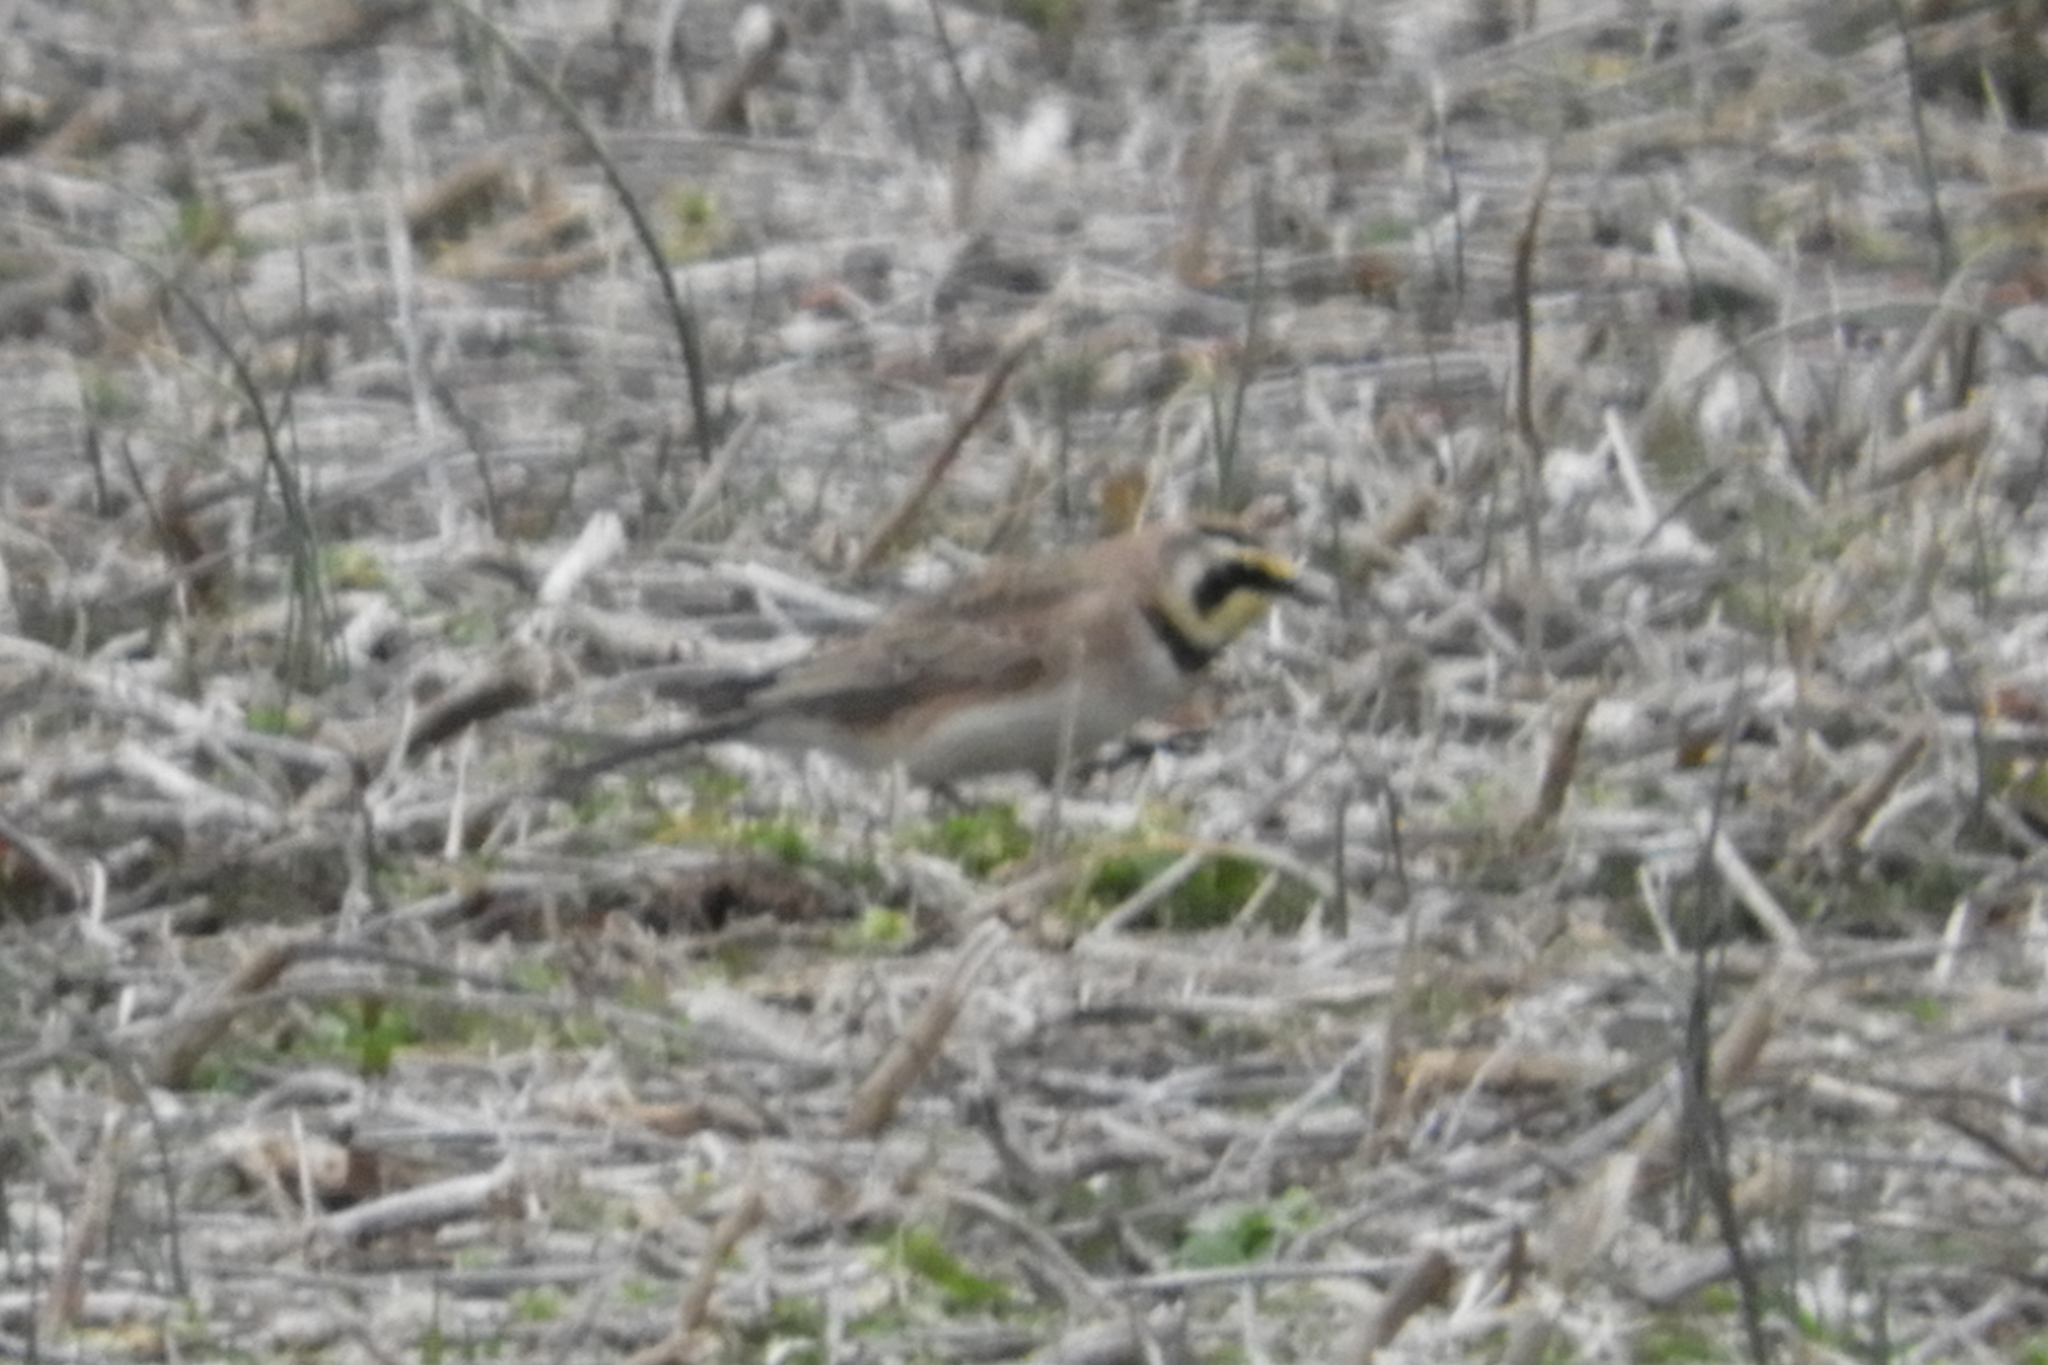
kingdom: Animalia
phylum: Chordata
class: Aves
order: Passeriformes
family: Alaudidae
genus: Eremophila
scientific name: Eremophila alpestris
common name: Horned lark
